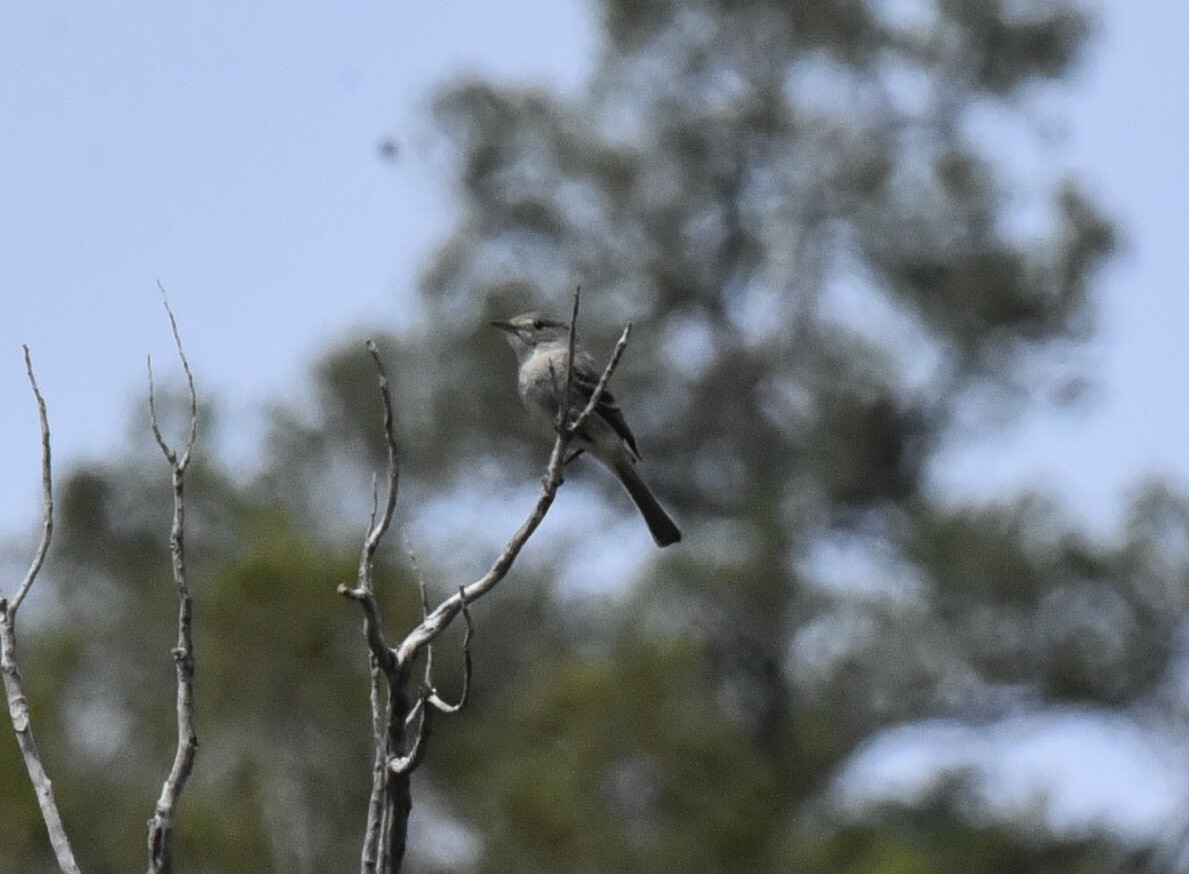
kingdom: Animalia
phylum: Chordata
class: Aves
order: Passeriformes
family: Tyrannidae
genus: Empidonax
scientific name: Empidonax wrightii
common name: Gray flycatcher
